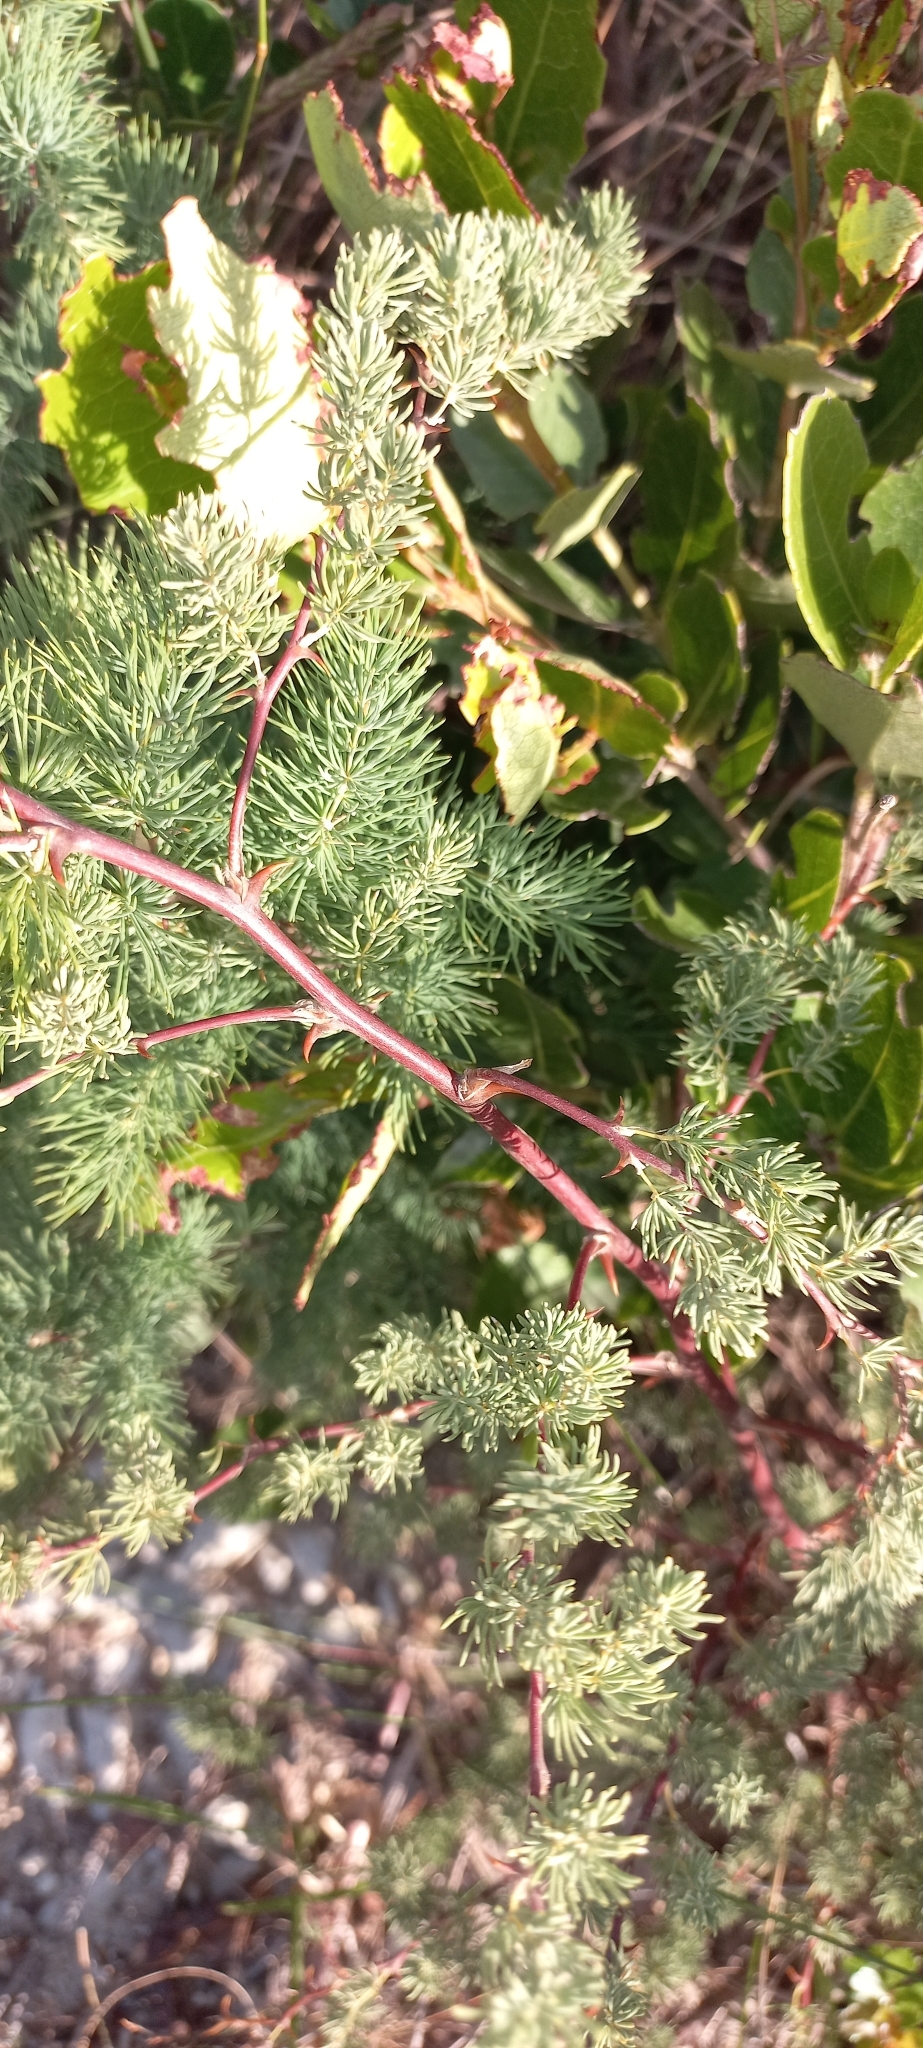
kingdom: Plantae
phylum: Tracheophyta
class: Liliopsida
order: Asparagales
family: Asparagaceae
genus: Asparagus
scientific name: Asparagus rubicundus
